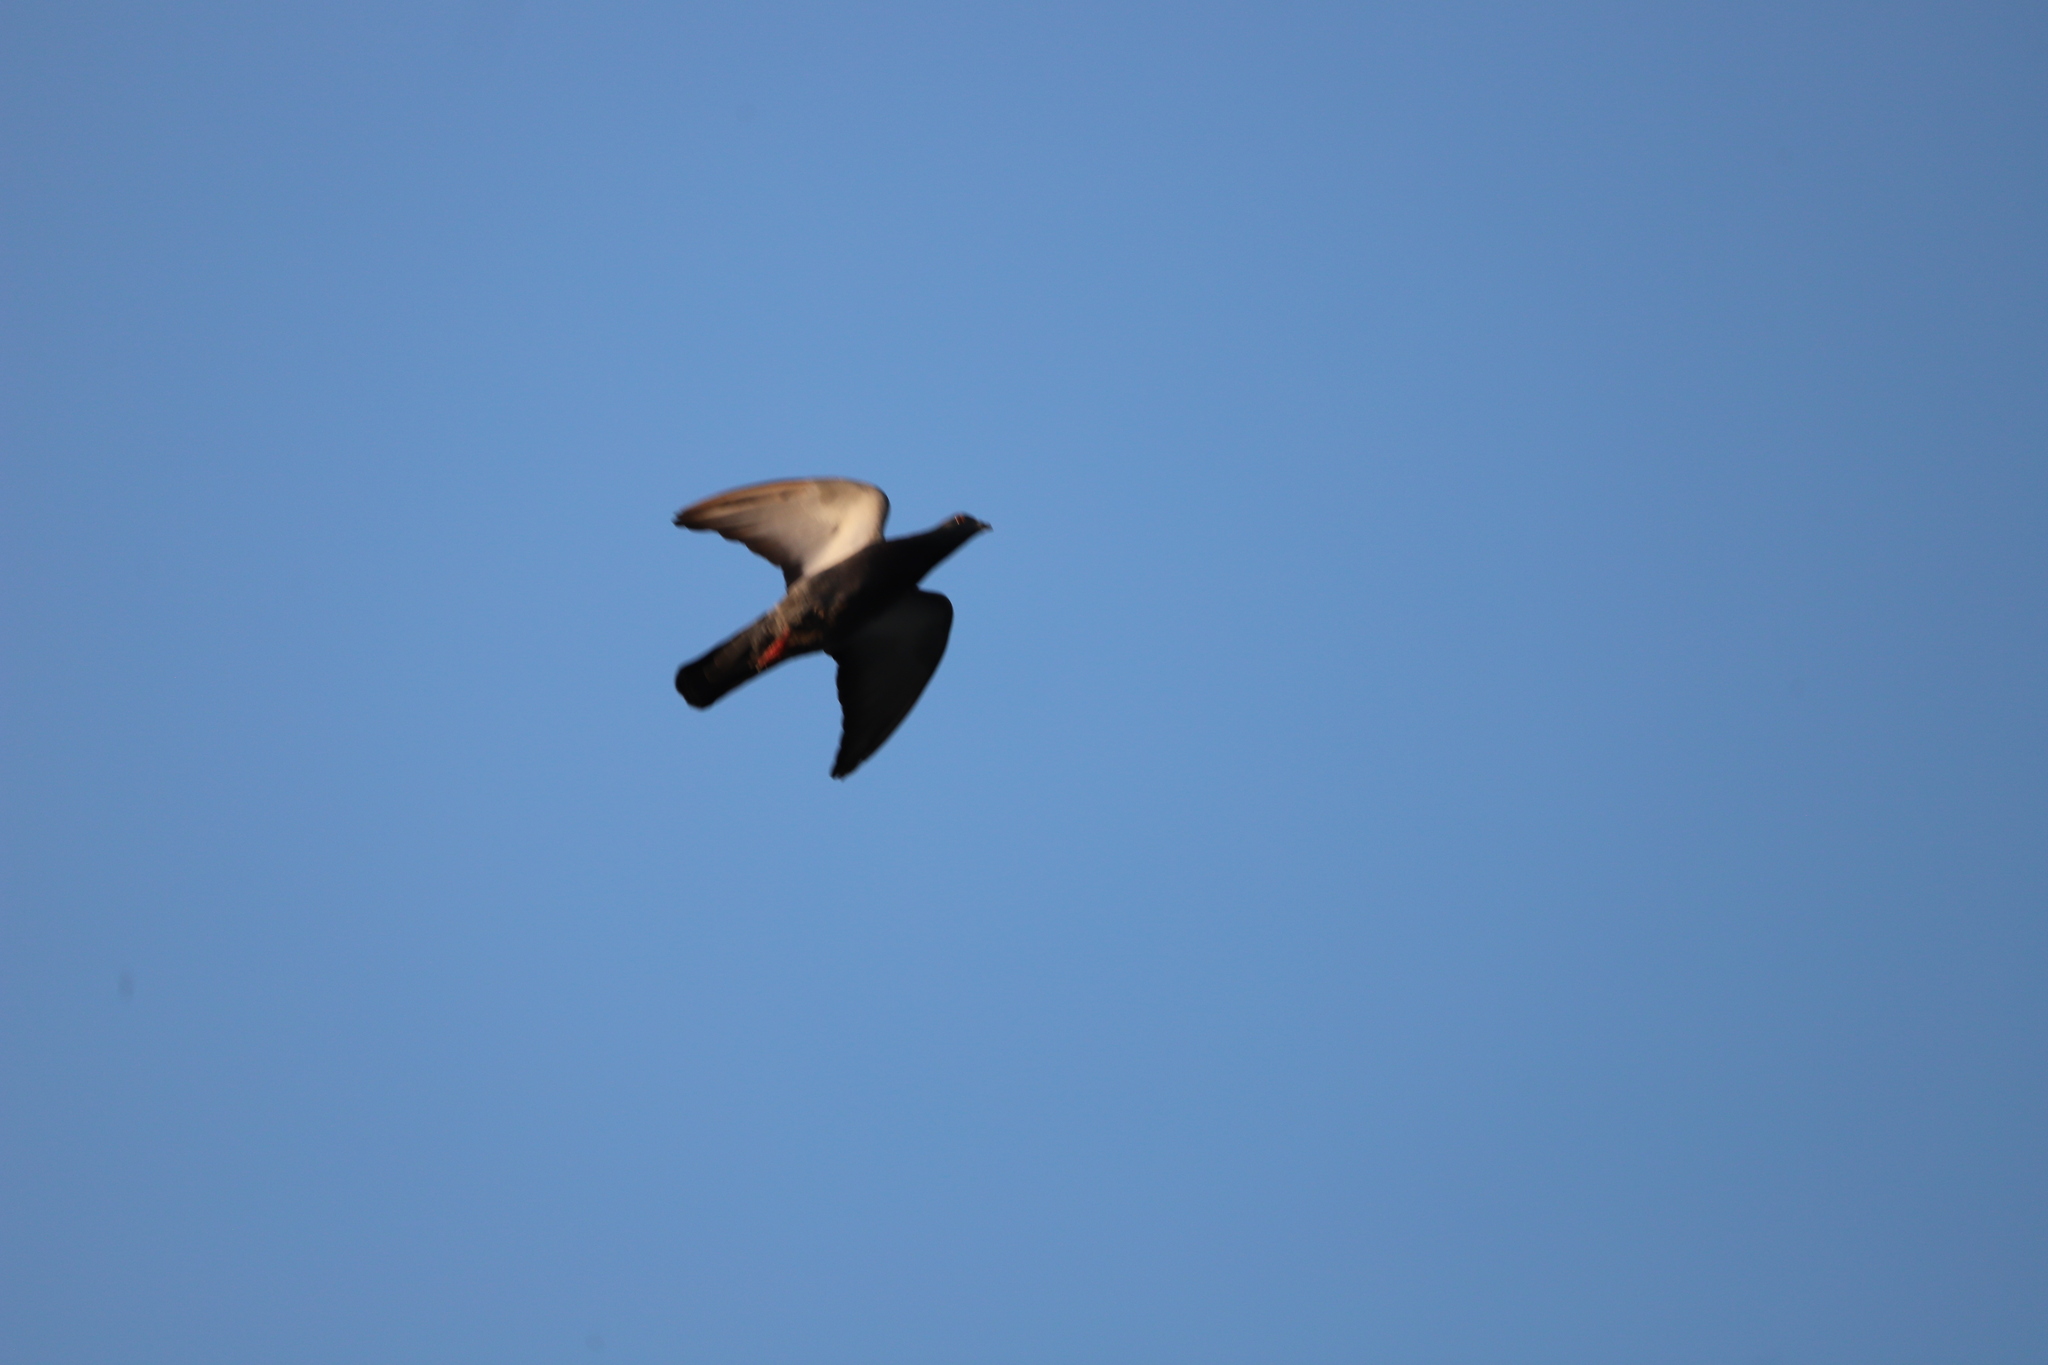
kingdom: Animalia
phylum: Chordata
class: Aves
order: Columbiformes
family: Columbidae
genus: Columba
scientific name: Columba livia
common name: Rock pigeon
